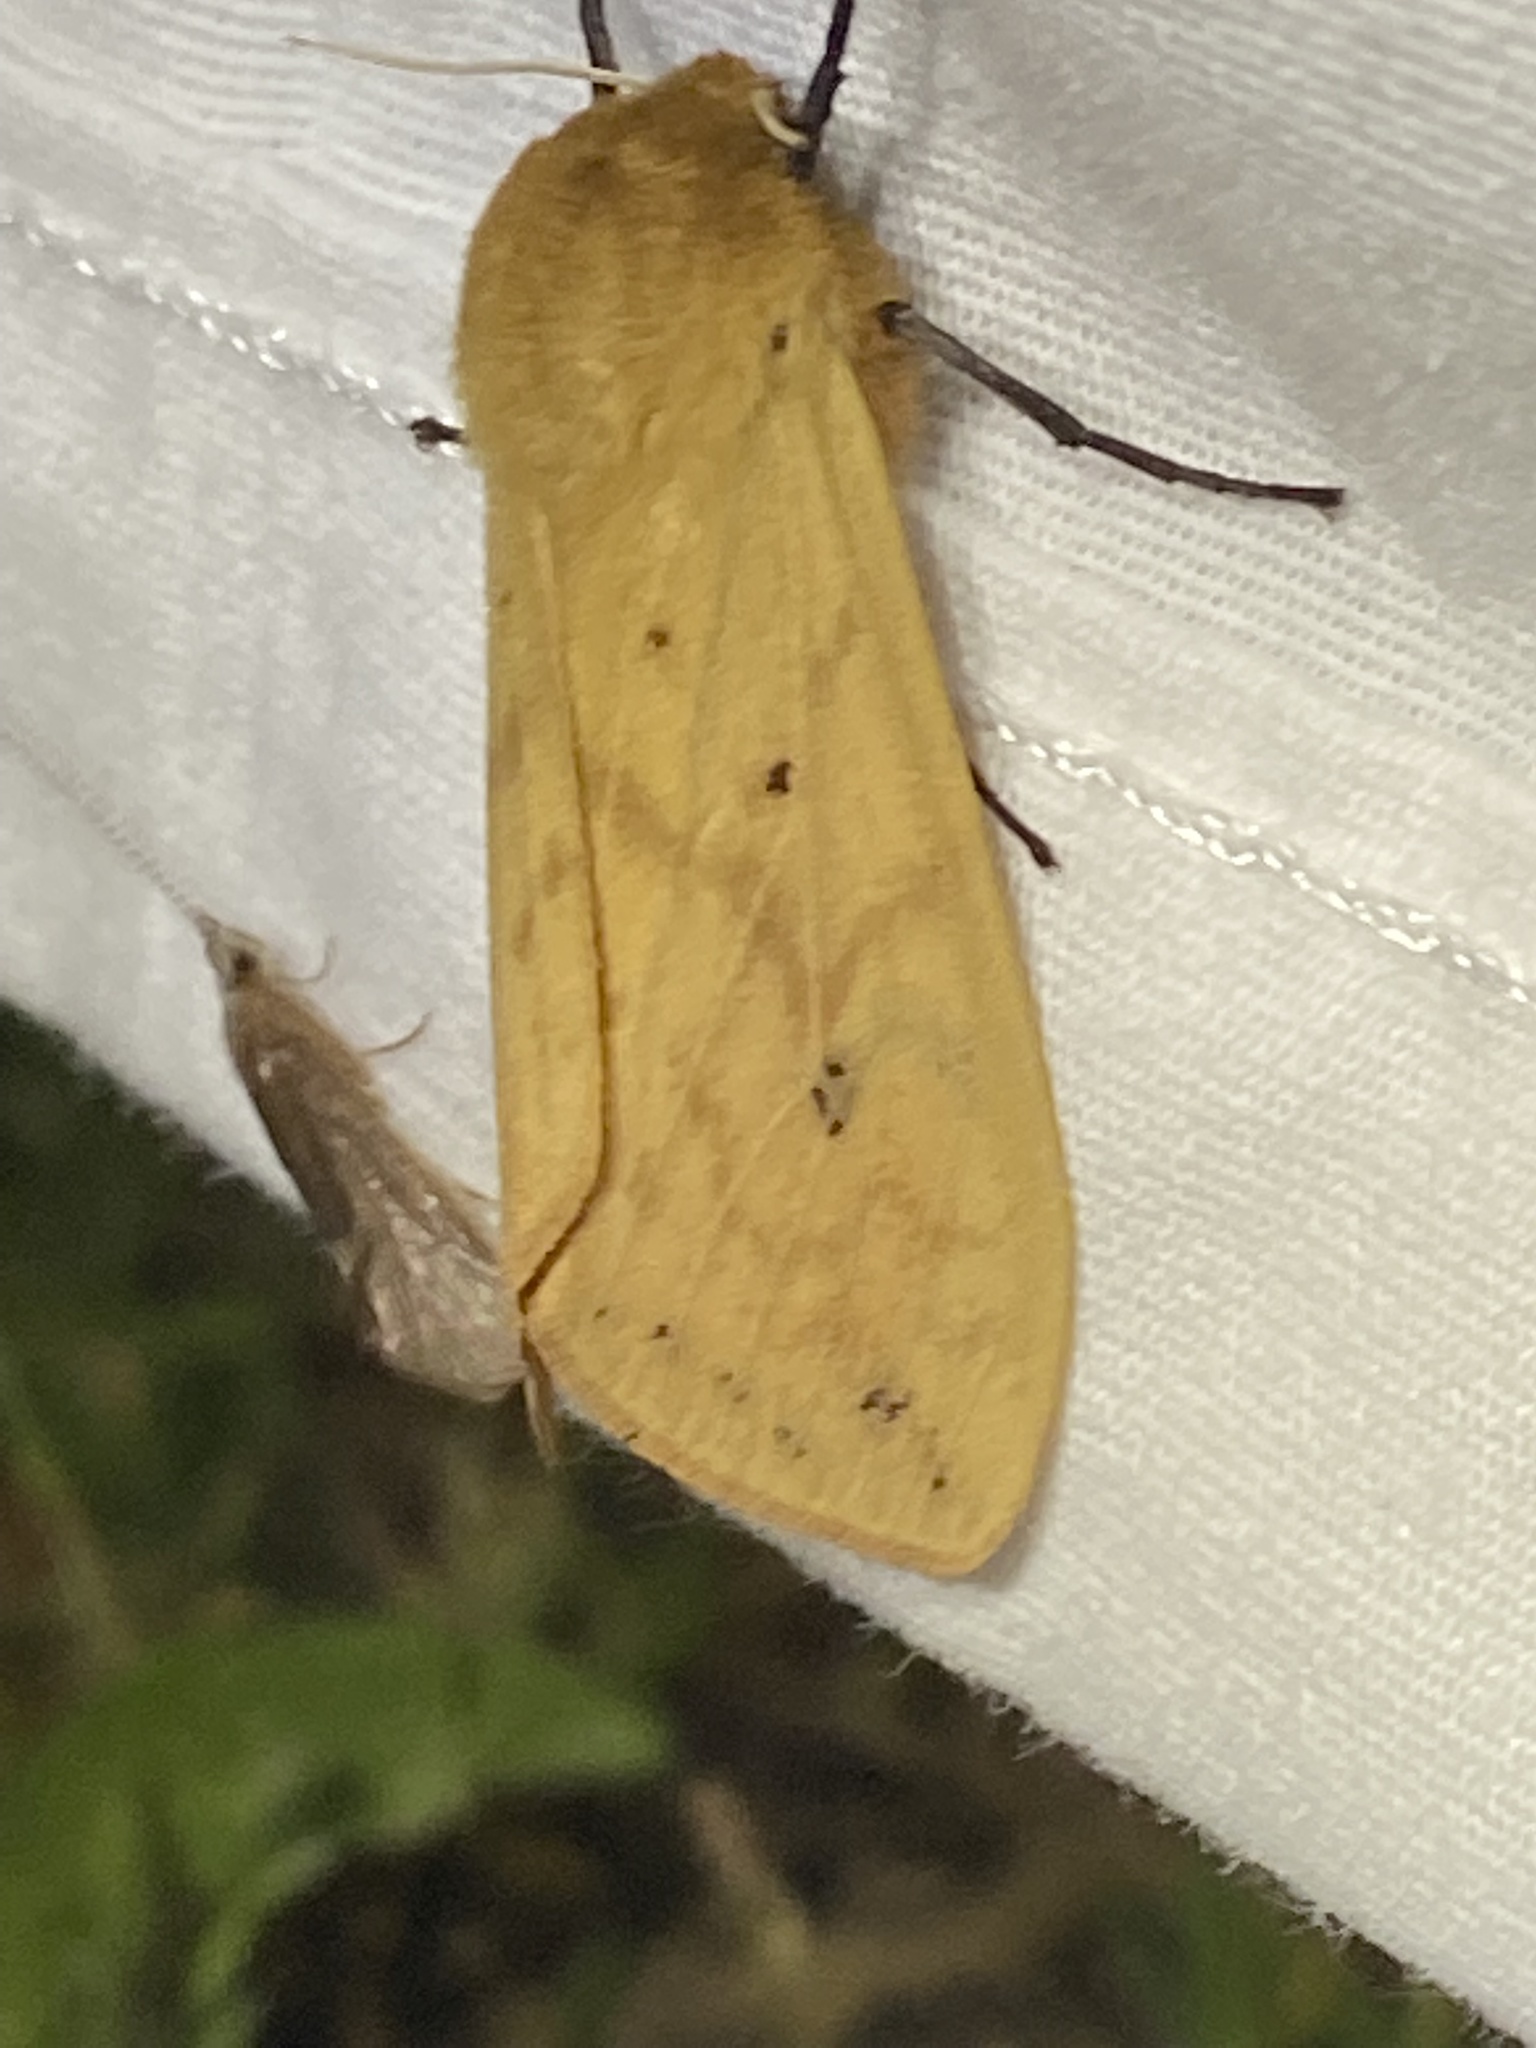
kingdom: Animalia
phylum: Arthropoda
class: Insecta
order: Diptera
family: Ulidiidae
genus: Delphinia
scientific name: Delphinia picta
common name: Common picture-winged fly
